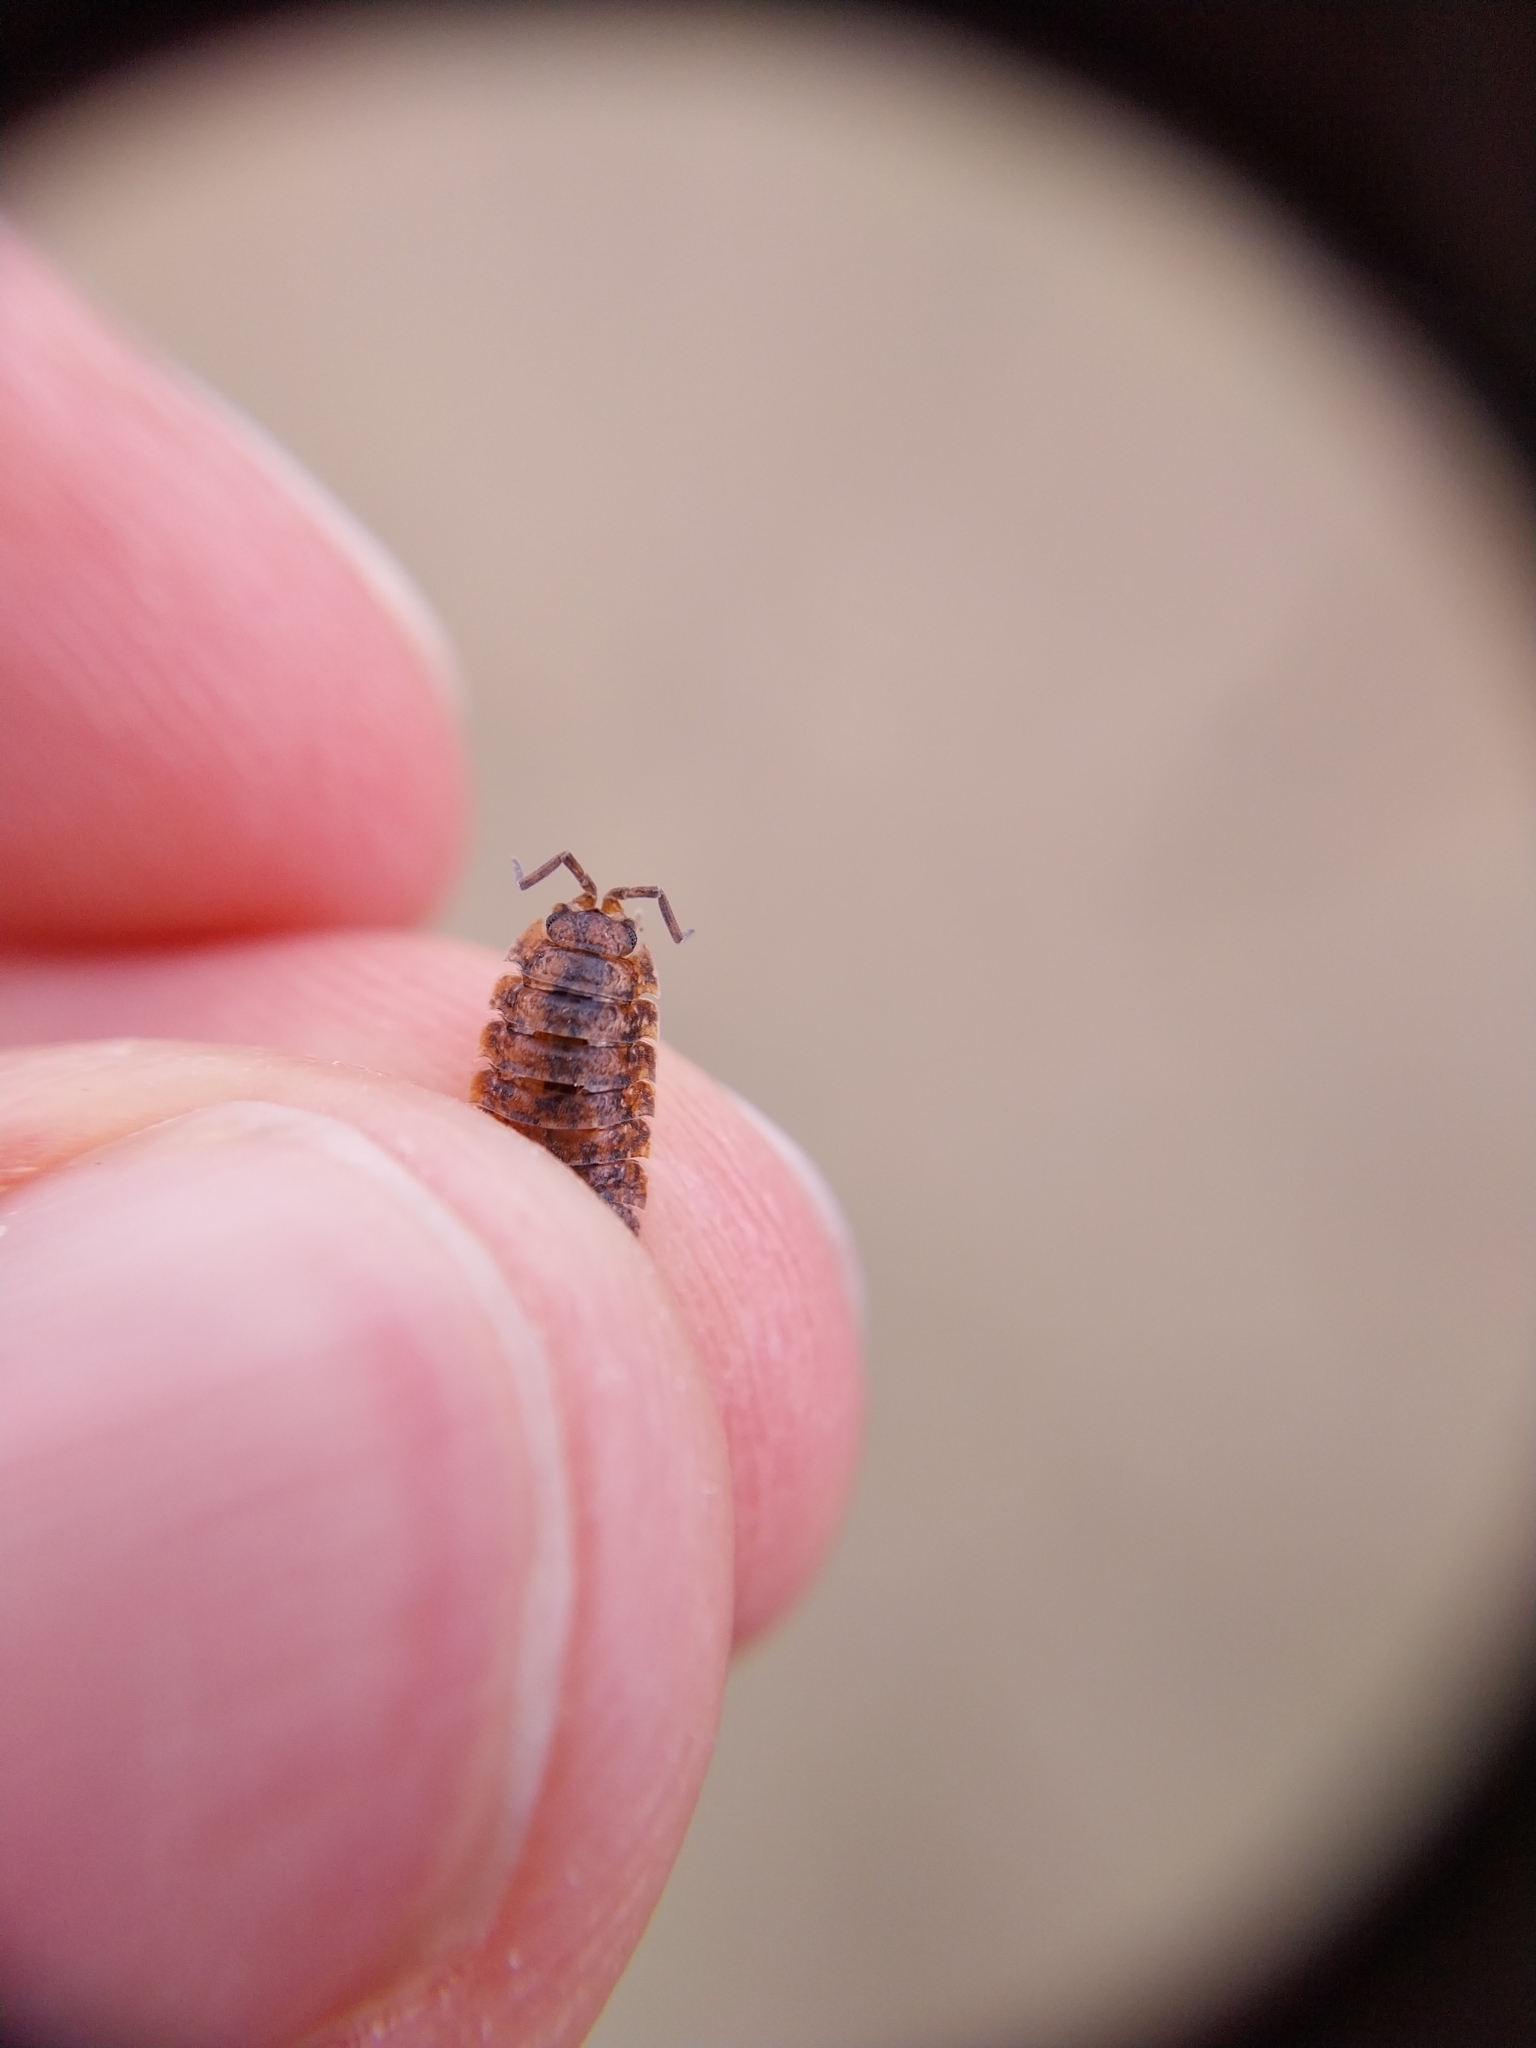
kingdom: Animalia
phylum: Arthropoda
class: Malacostraca
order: Isopoda
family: Porcellionidae
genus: Porcellio
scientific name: Porcellio scaber
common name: Common rough woodlouse
